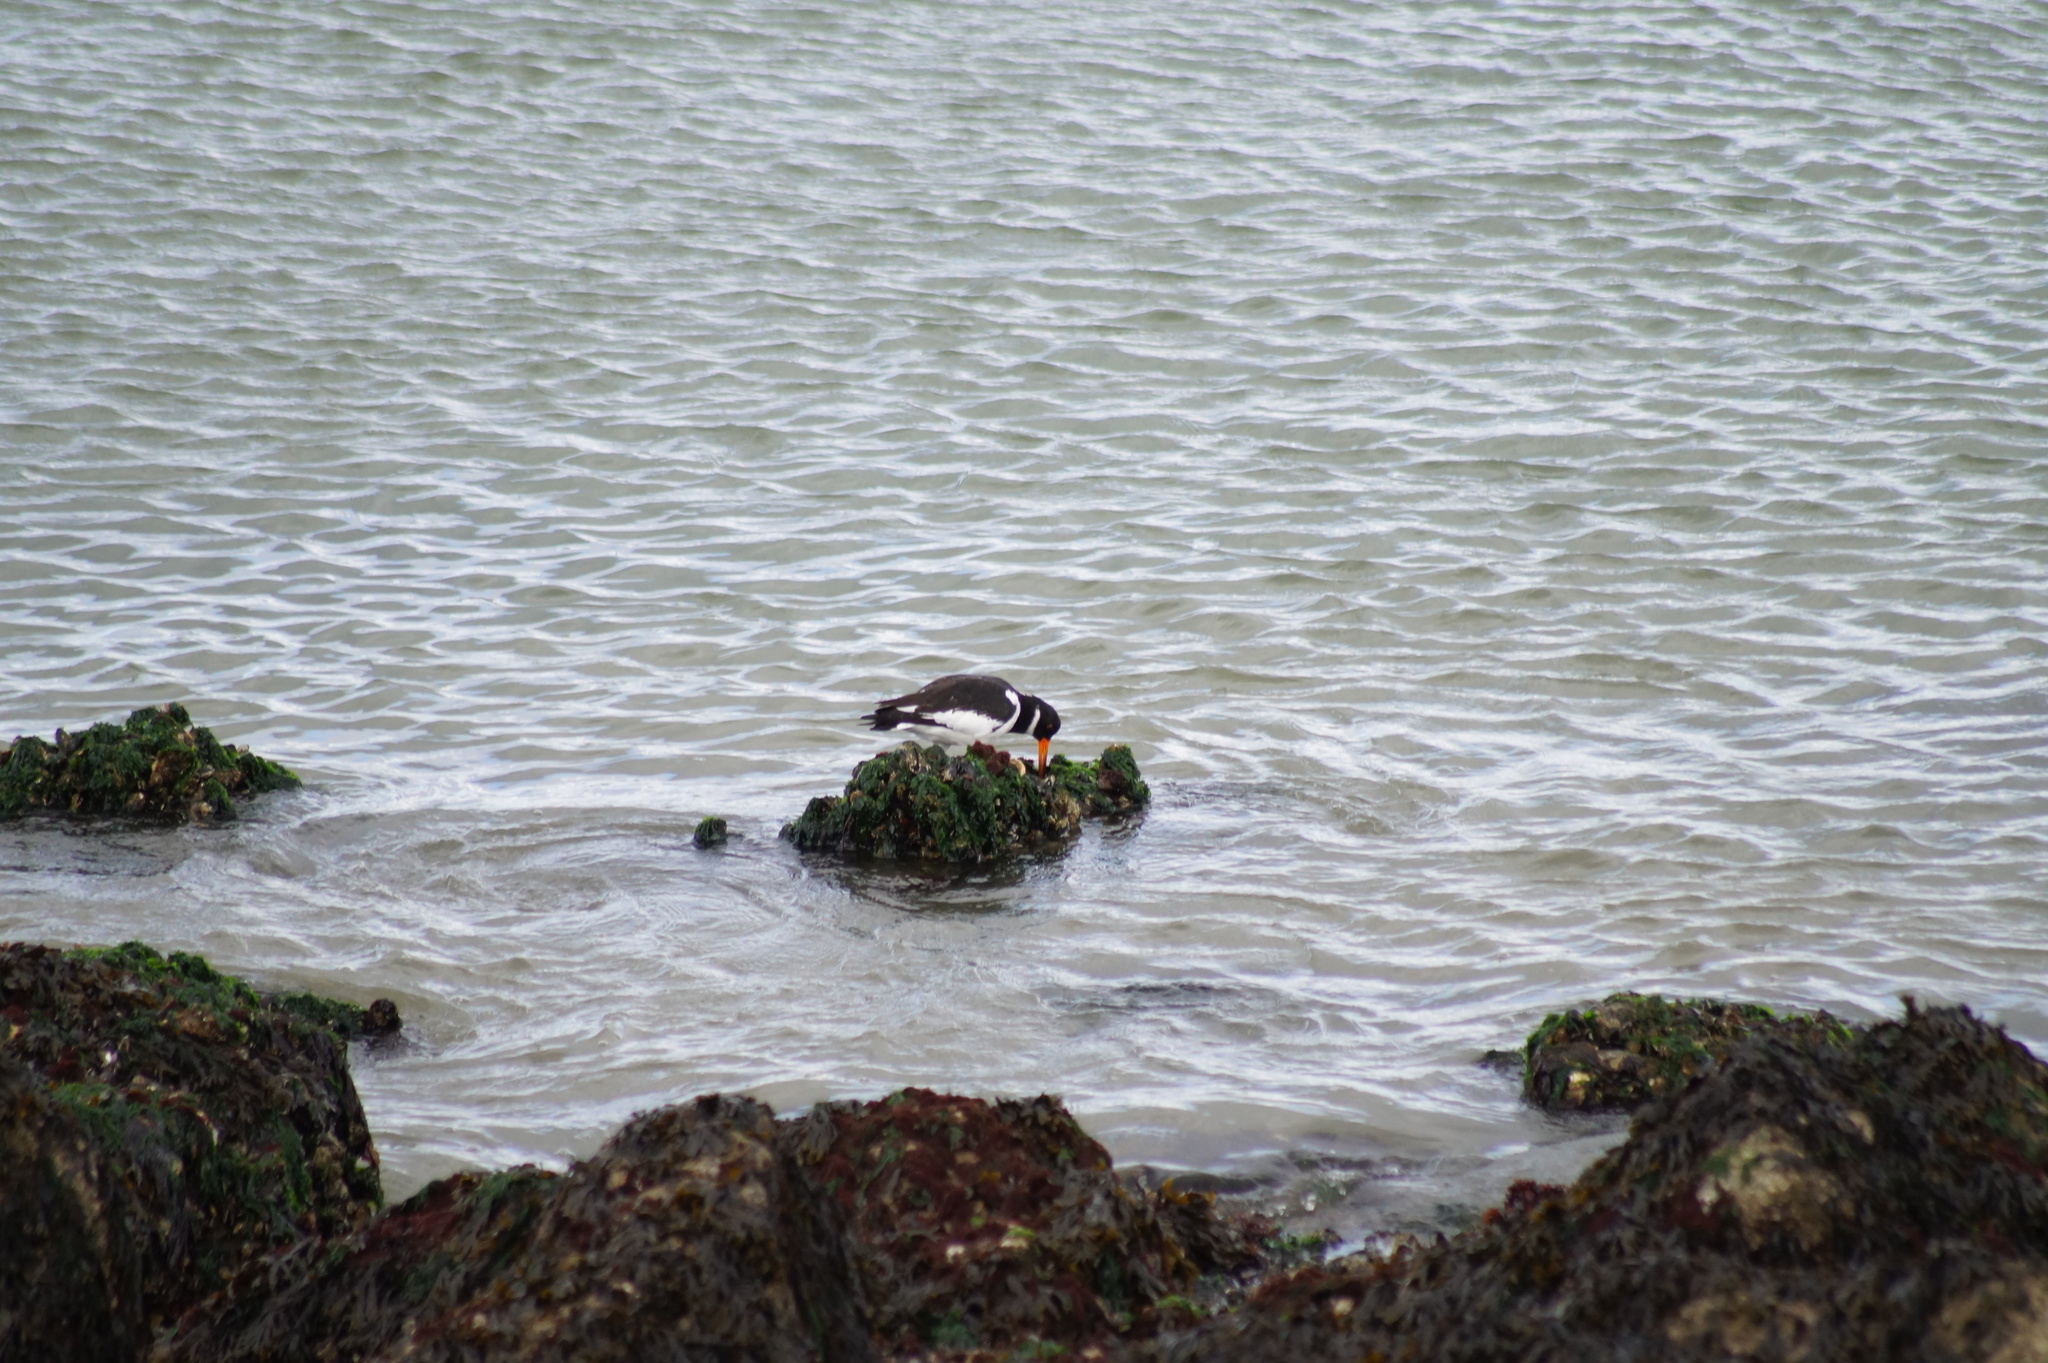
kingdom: Animalia
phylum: Chordata
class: Aves
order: Charadriiformes
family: Haematopodidae
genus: Haematopus
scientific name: Haematopus ostralegus
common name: Eurasian oystercatcher
